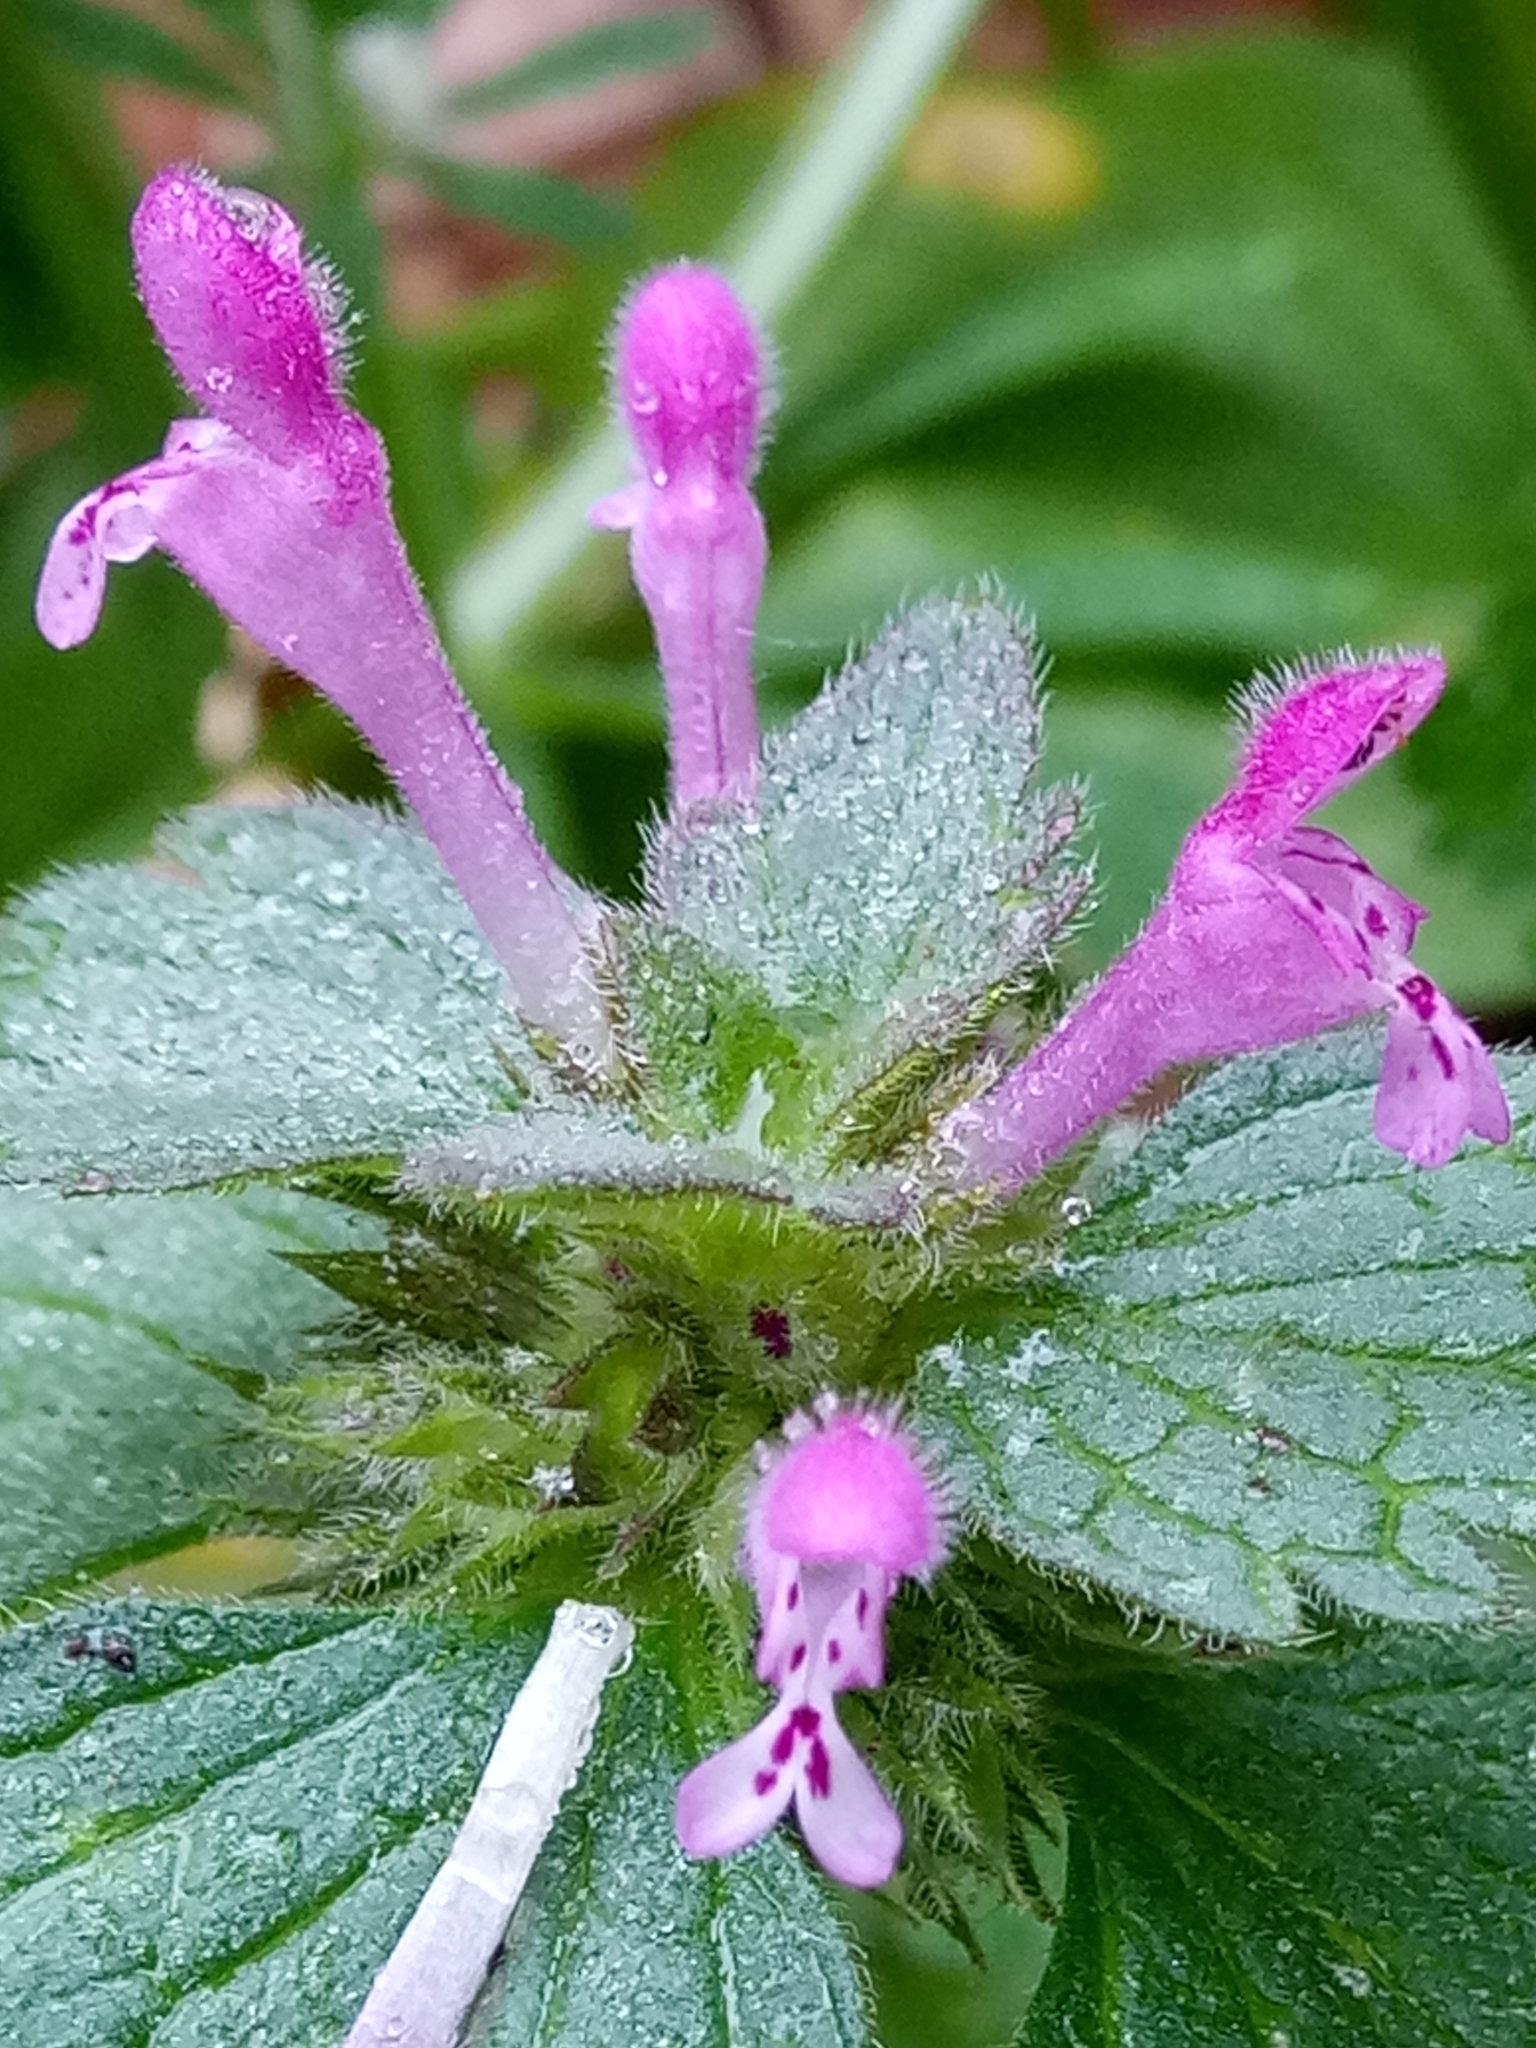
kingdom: Plantae
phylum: Tracheophyta
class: Magnoliopsida
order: Lamiales
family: Lamiaceae
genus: Lamium
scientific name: Lamium amplexicaule
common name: Henbit dead-nettle
